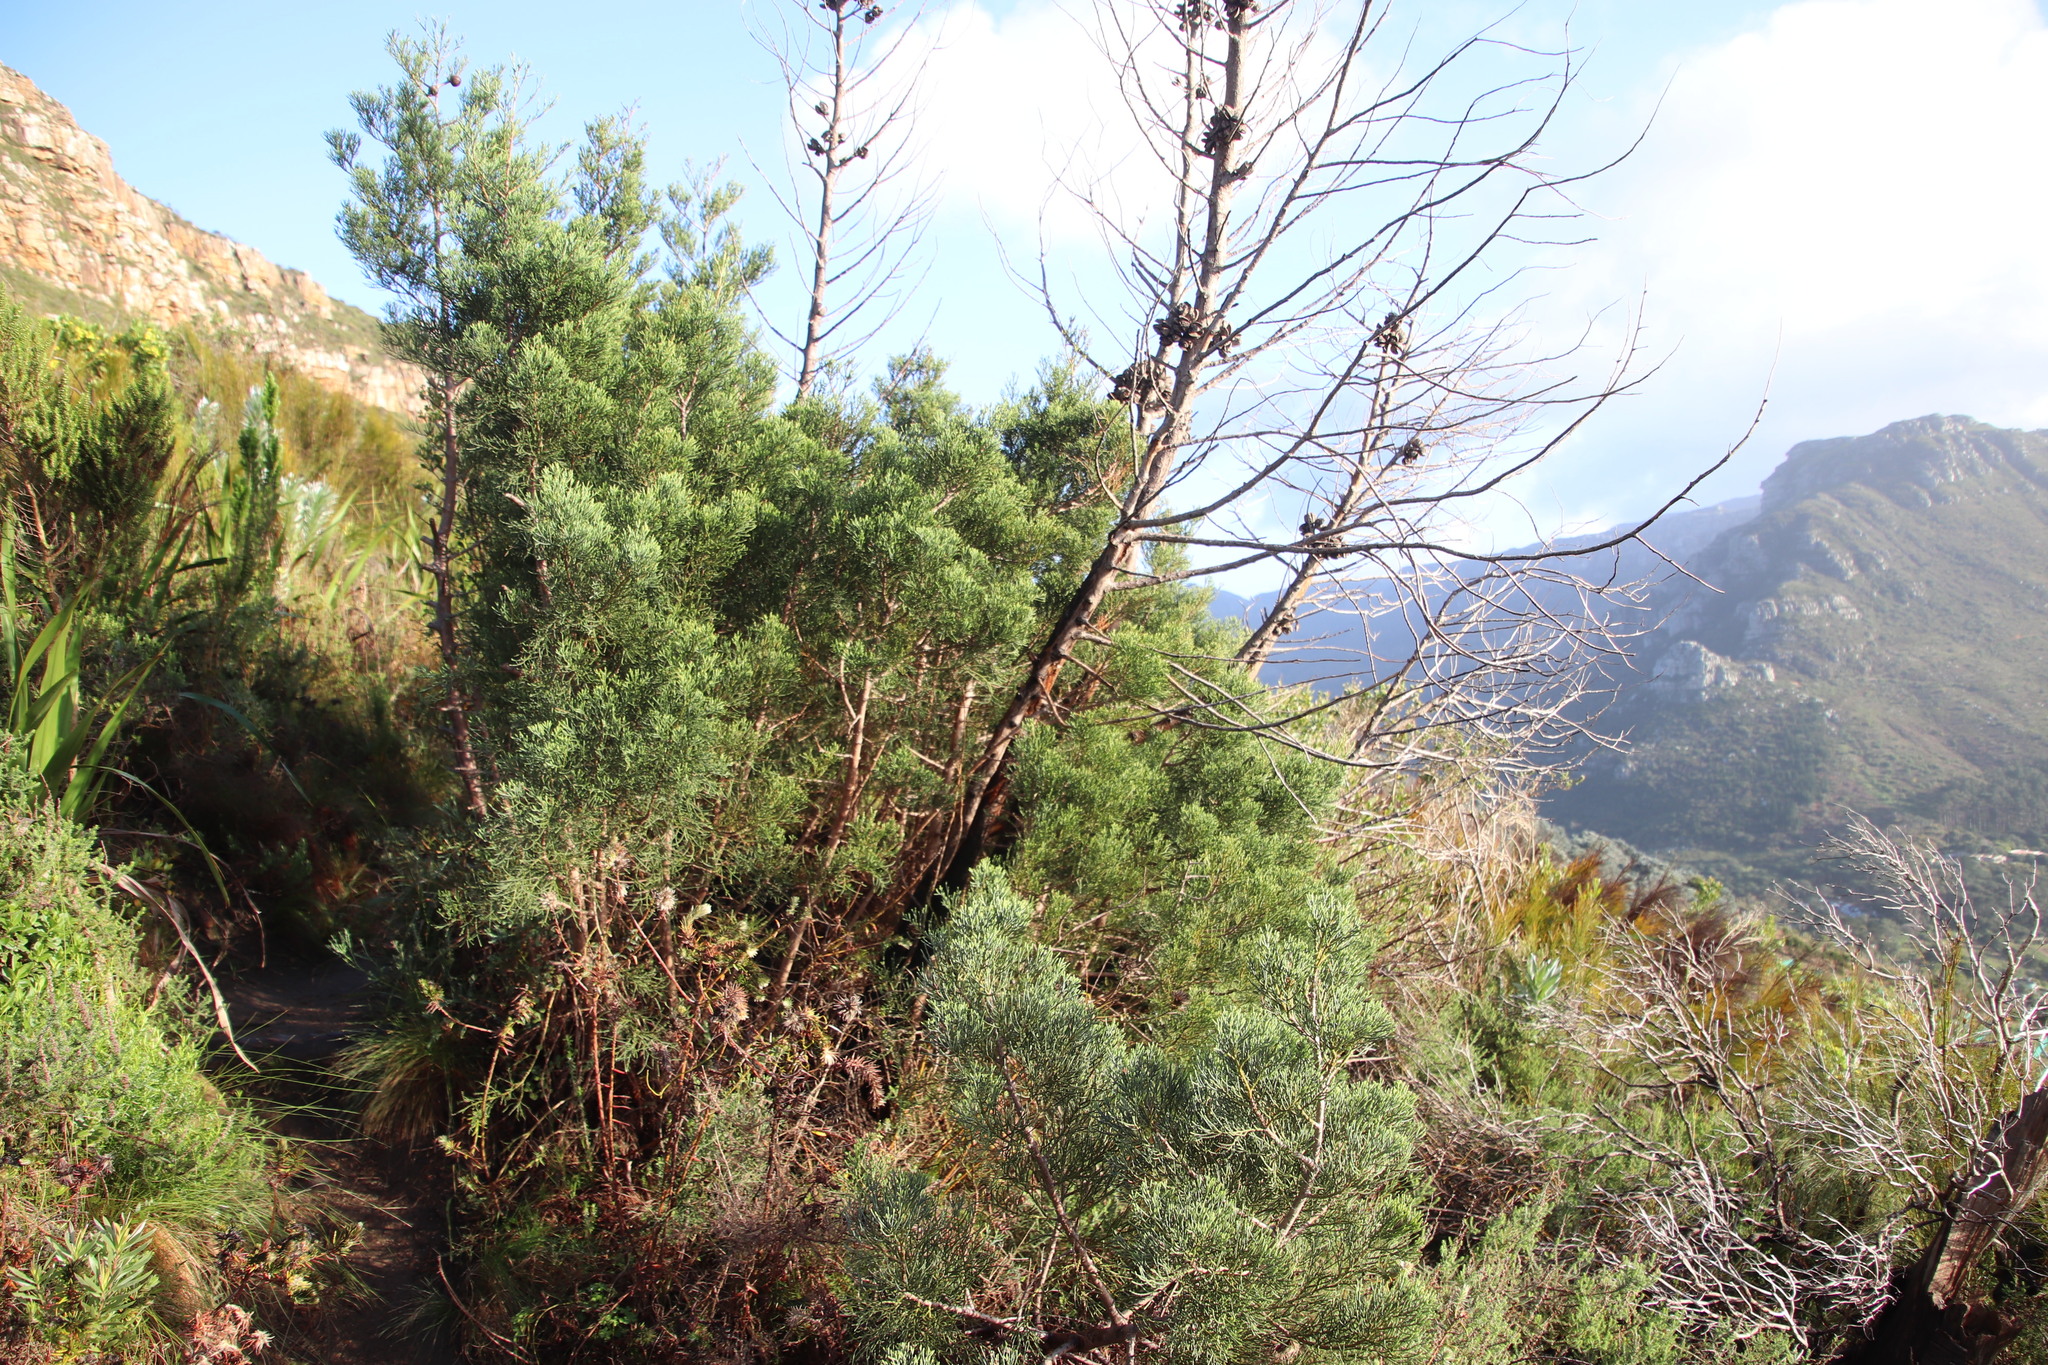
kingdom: Plantae
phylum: Tracheophyta
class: Pinopsida
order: Pinales
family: Cupressaceae
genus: Widdringtonia
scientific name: Widdringtonia nodiflora
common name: Cape cypress
